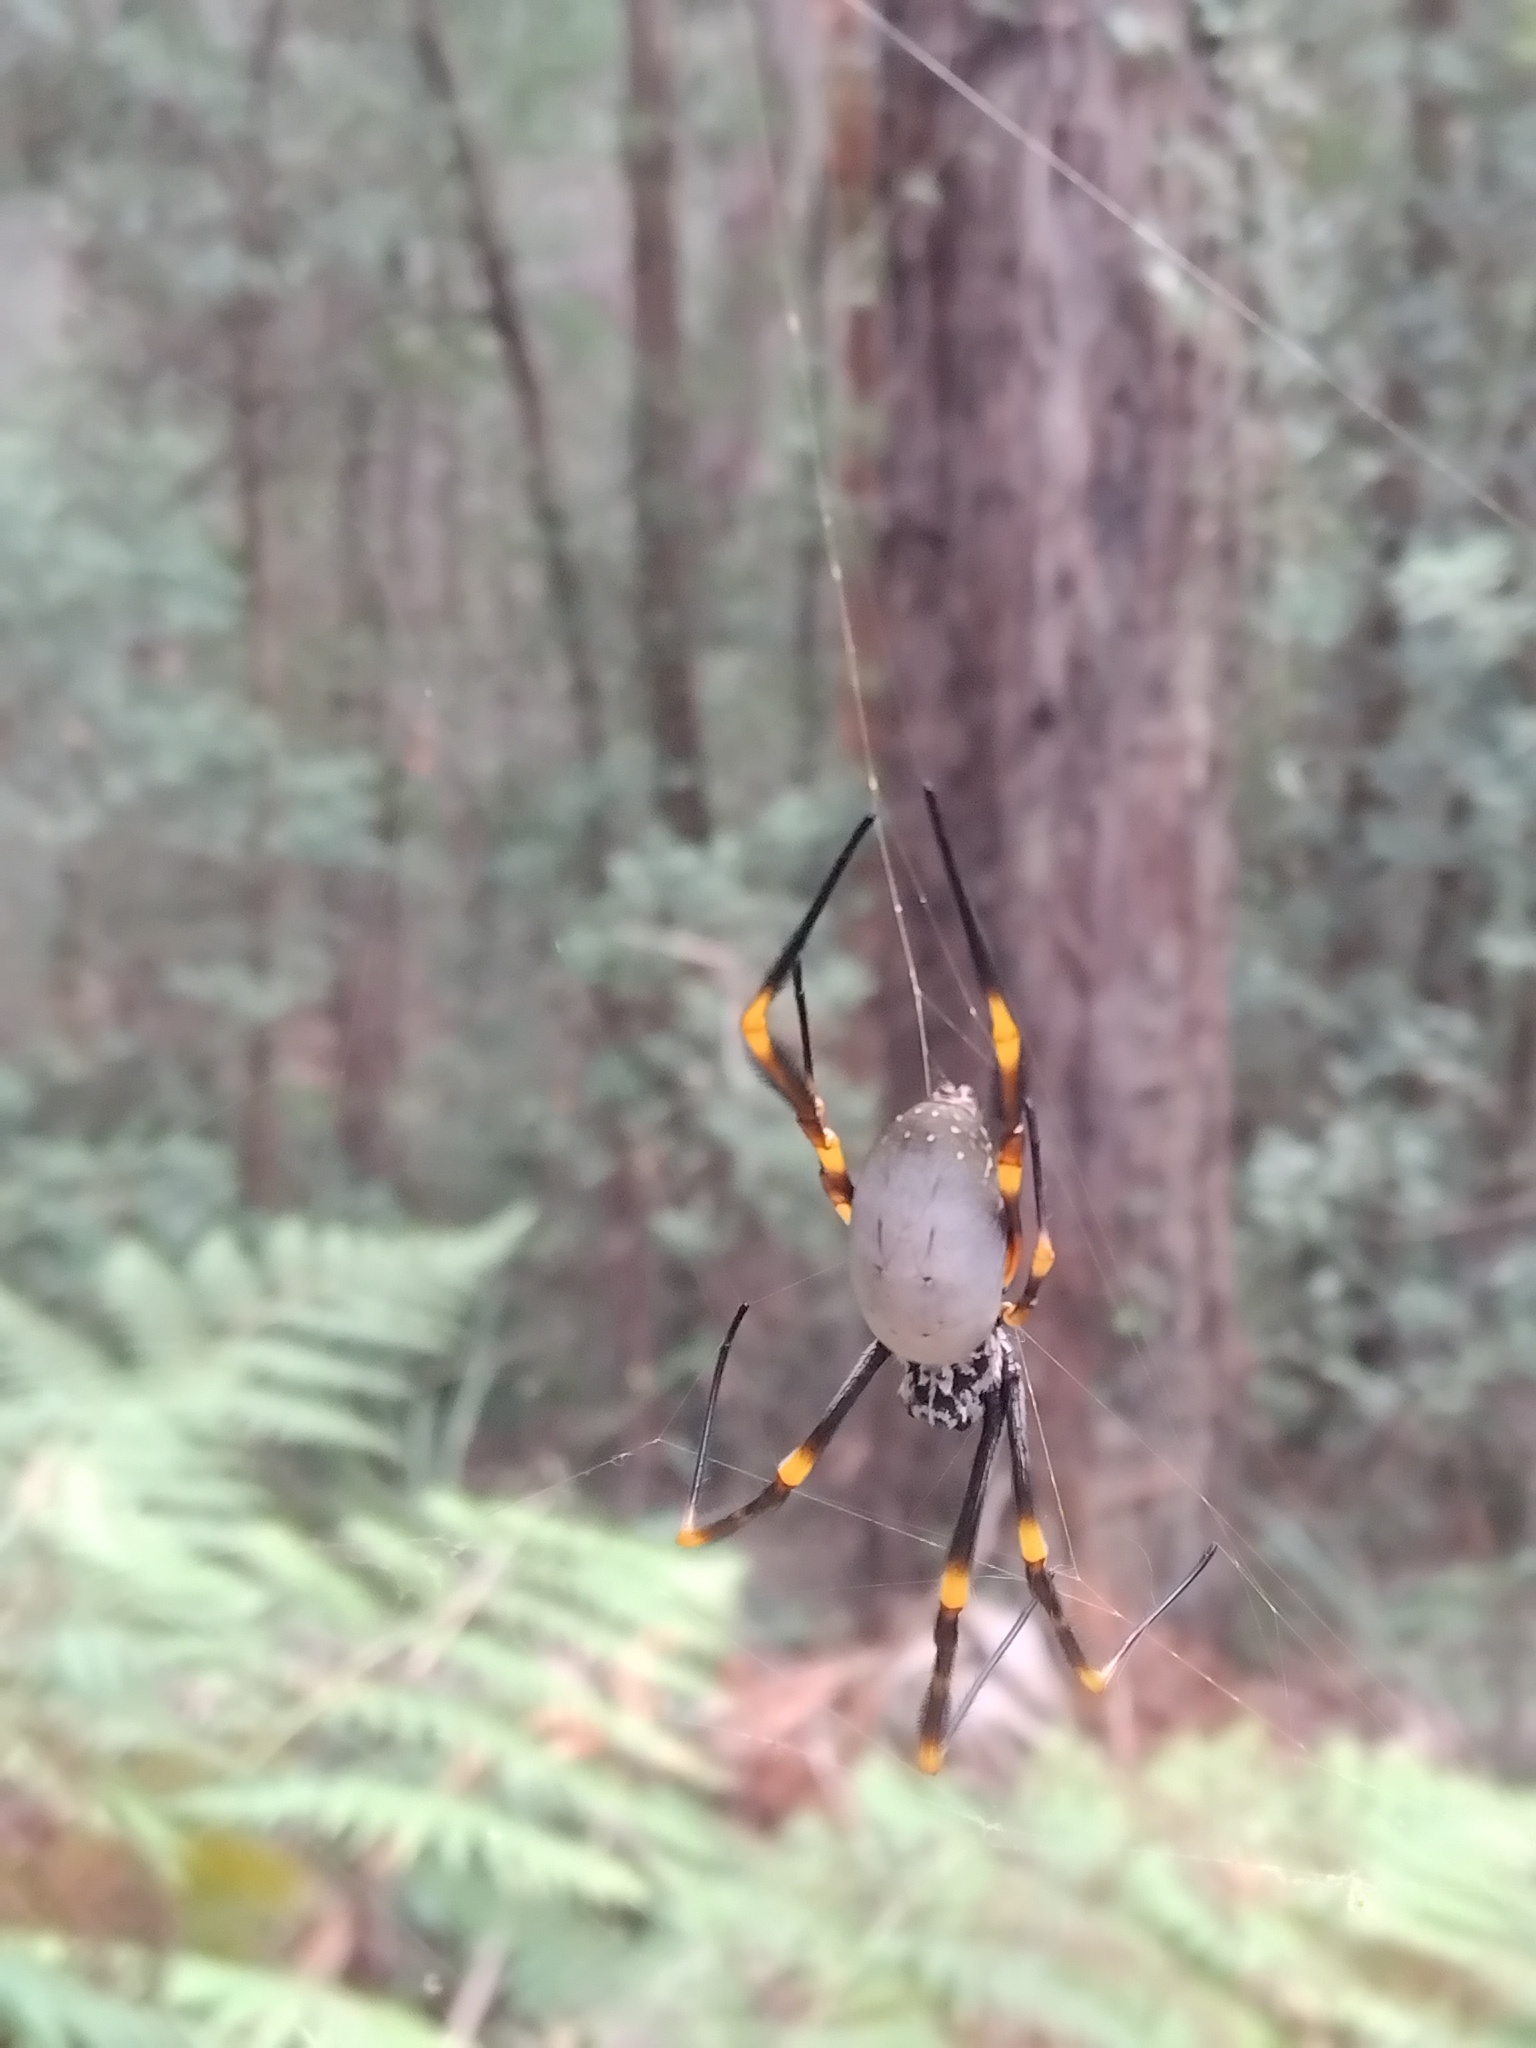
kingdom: Animalia
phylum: Arthropoda
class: Arachnida
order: Araneae
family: Araneidae
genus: Trichonephila
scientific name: Trichonephila plumipes
